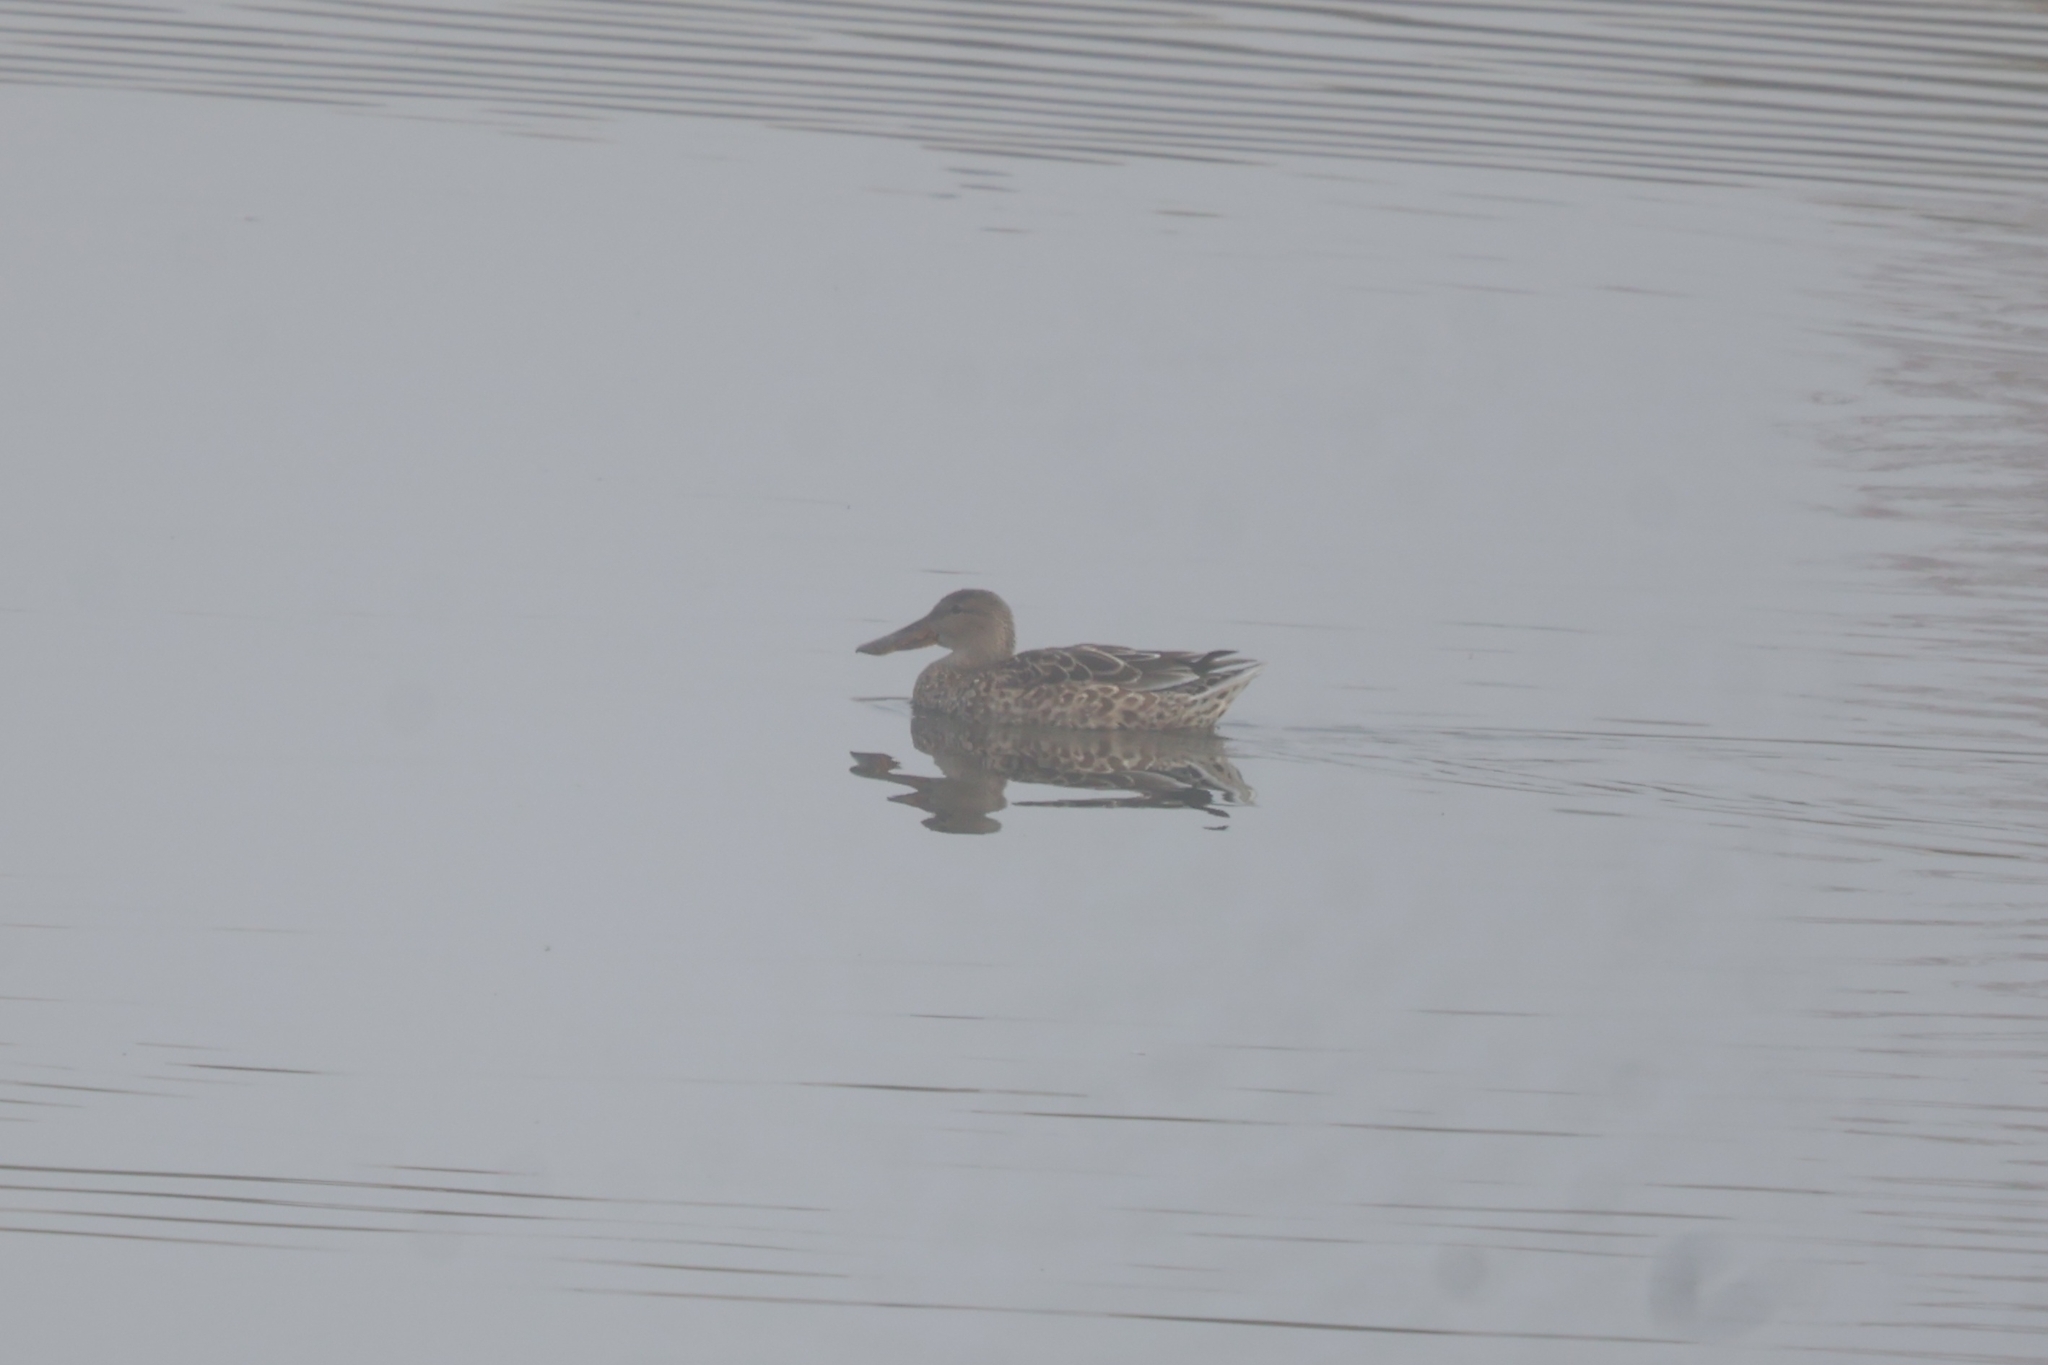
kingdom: Animalia
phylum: Chordata
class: Aves
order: Anseriformes
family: Anatidae
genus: Spatula
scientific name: Spatula clypeata
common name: Northern shoveler
